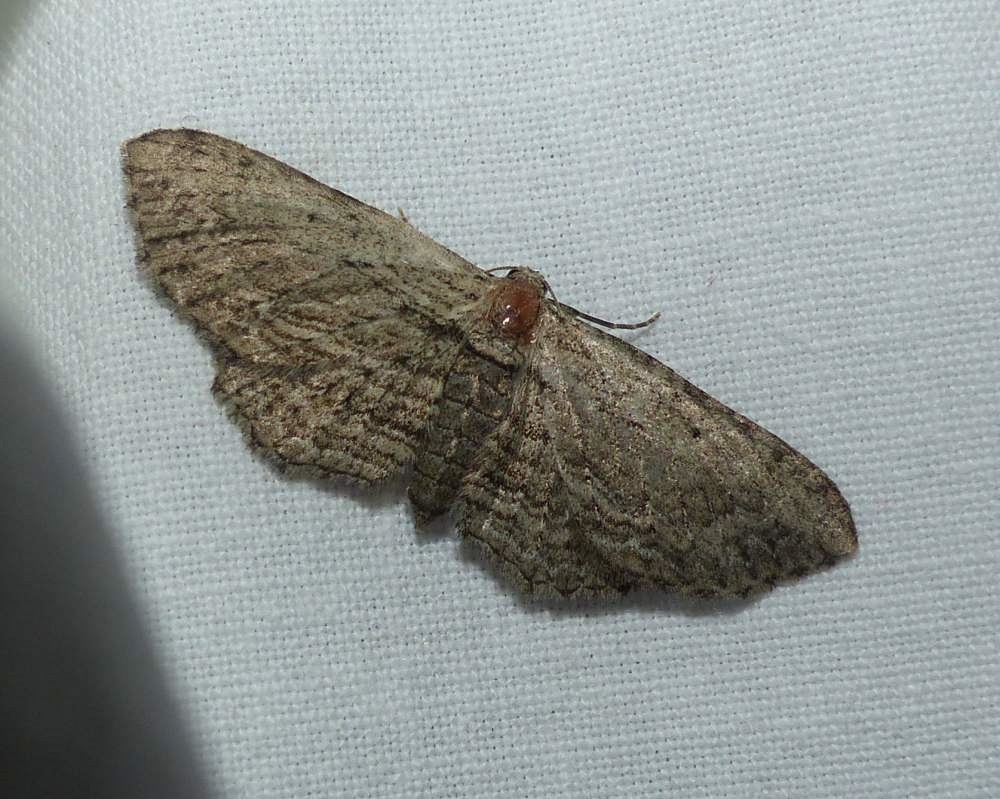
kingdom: Animalia
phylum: Arthropoda
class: Insecta
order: Lepidoptera
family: Geometridae
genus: Horisme
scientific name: Horisme intestinata
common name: Brown bark carpet
